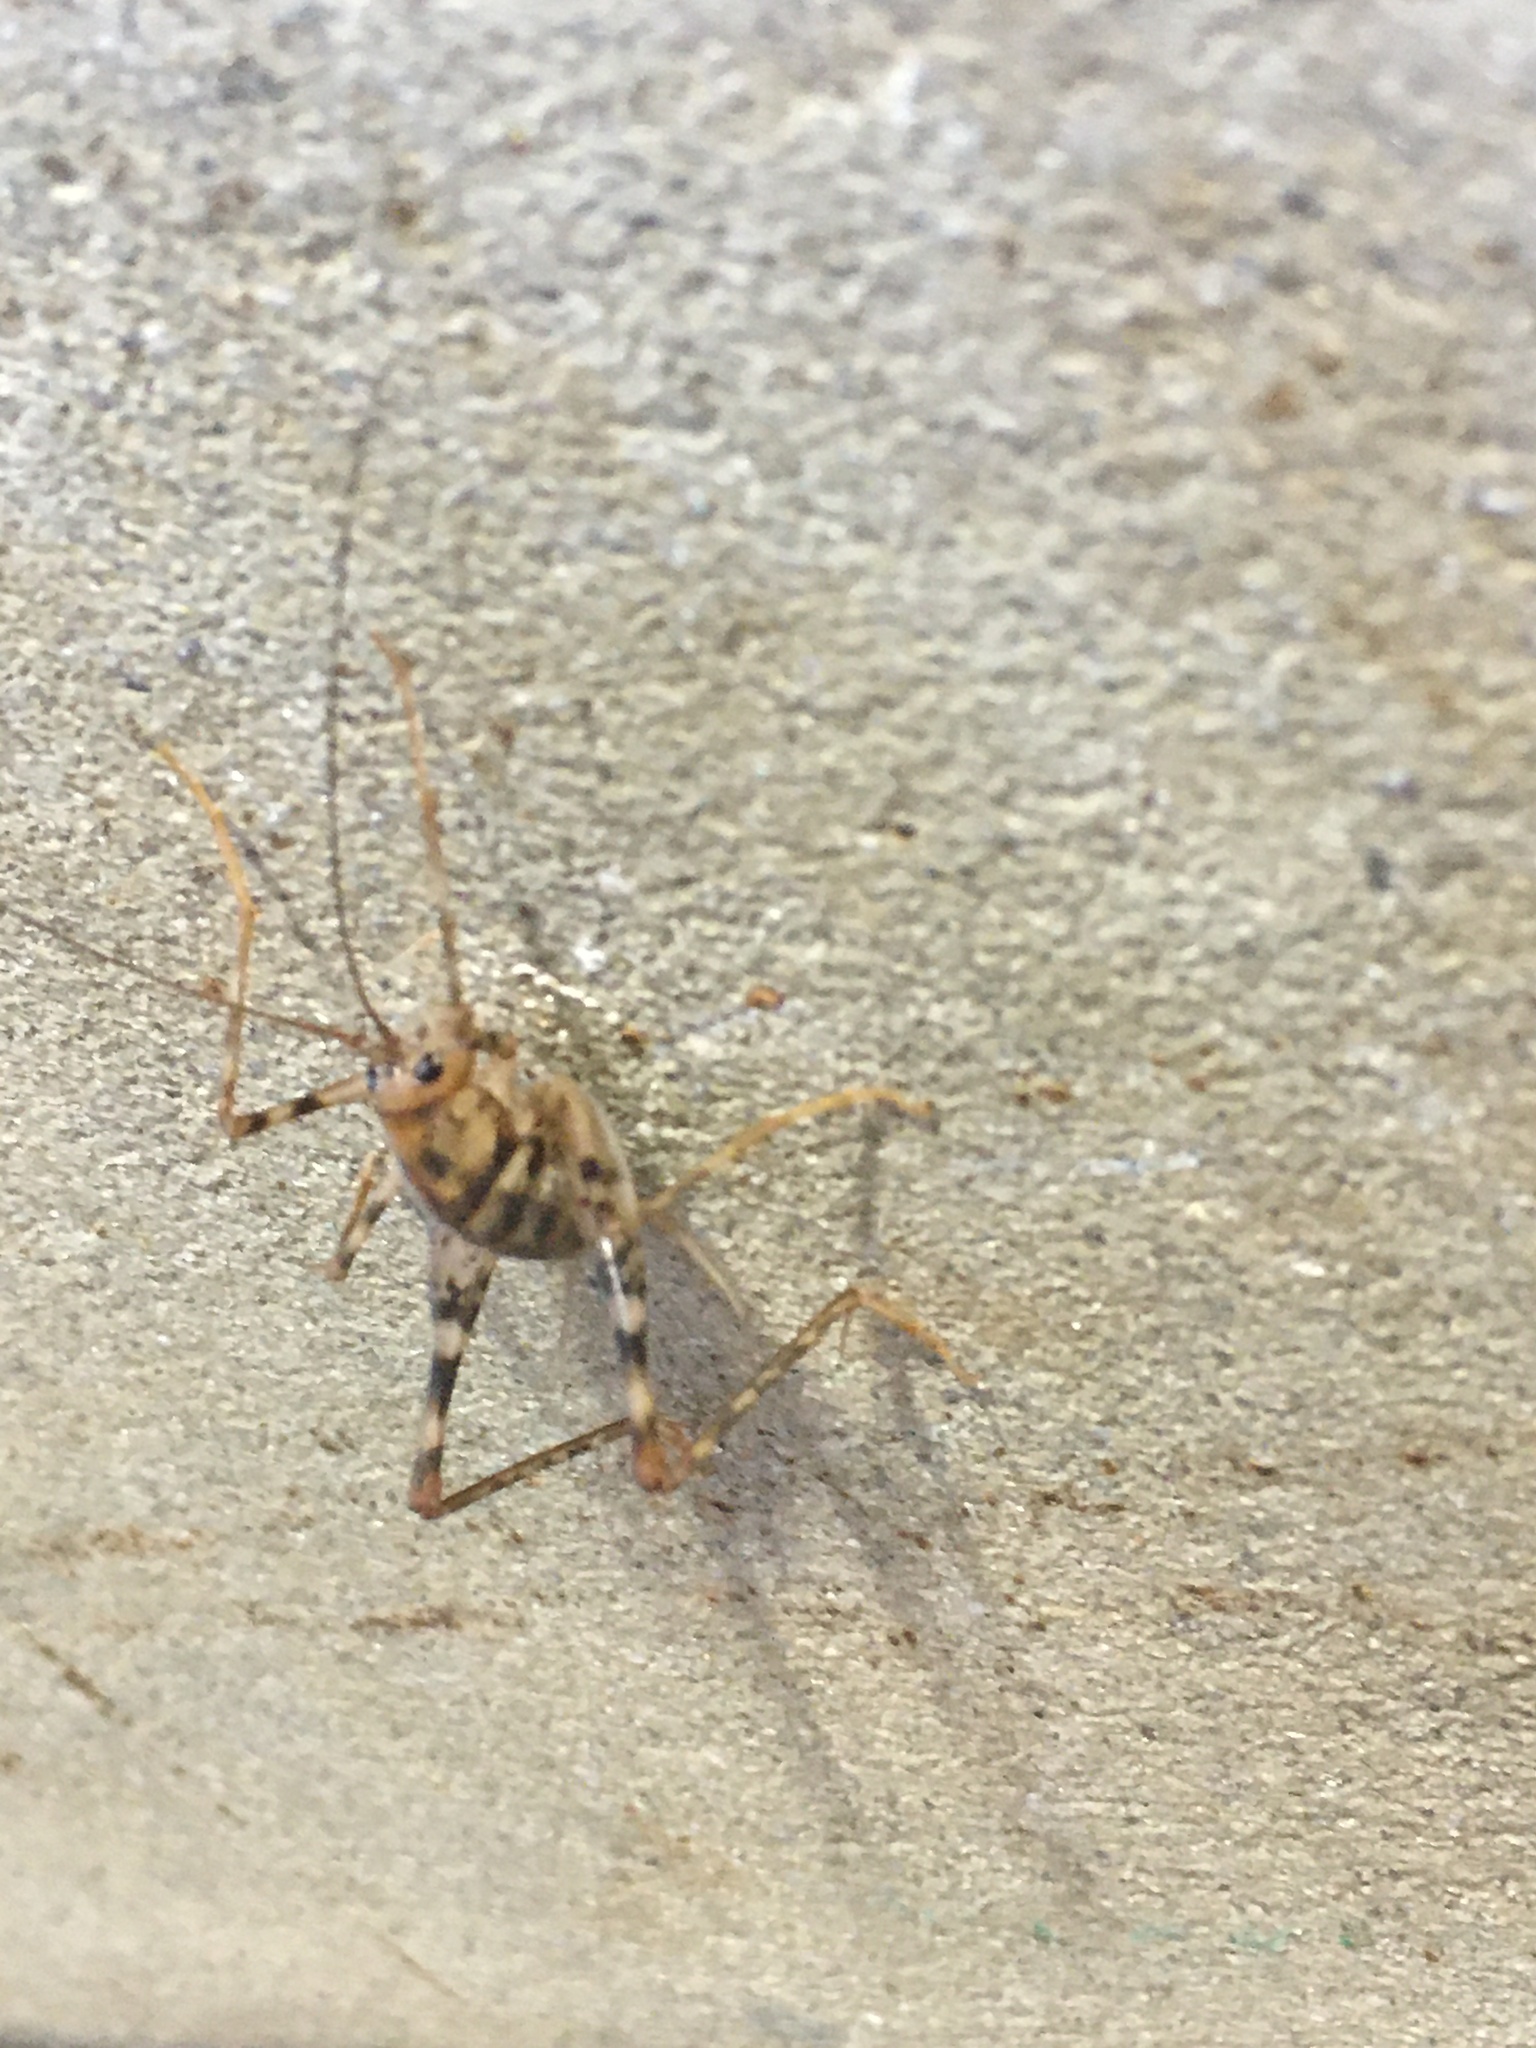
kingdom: Animalia
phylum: Arthropoda
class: Insecta
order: Orthoptera
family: Rhaphidophoridae
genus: Tachycines
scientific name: Tachycines asynamorus
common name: Greenhouse camel cricket
